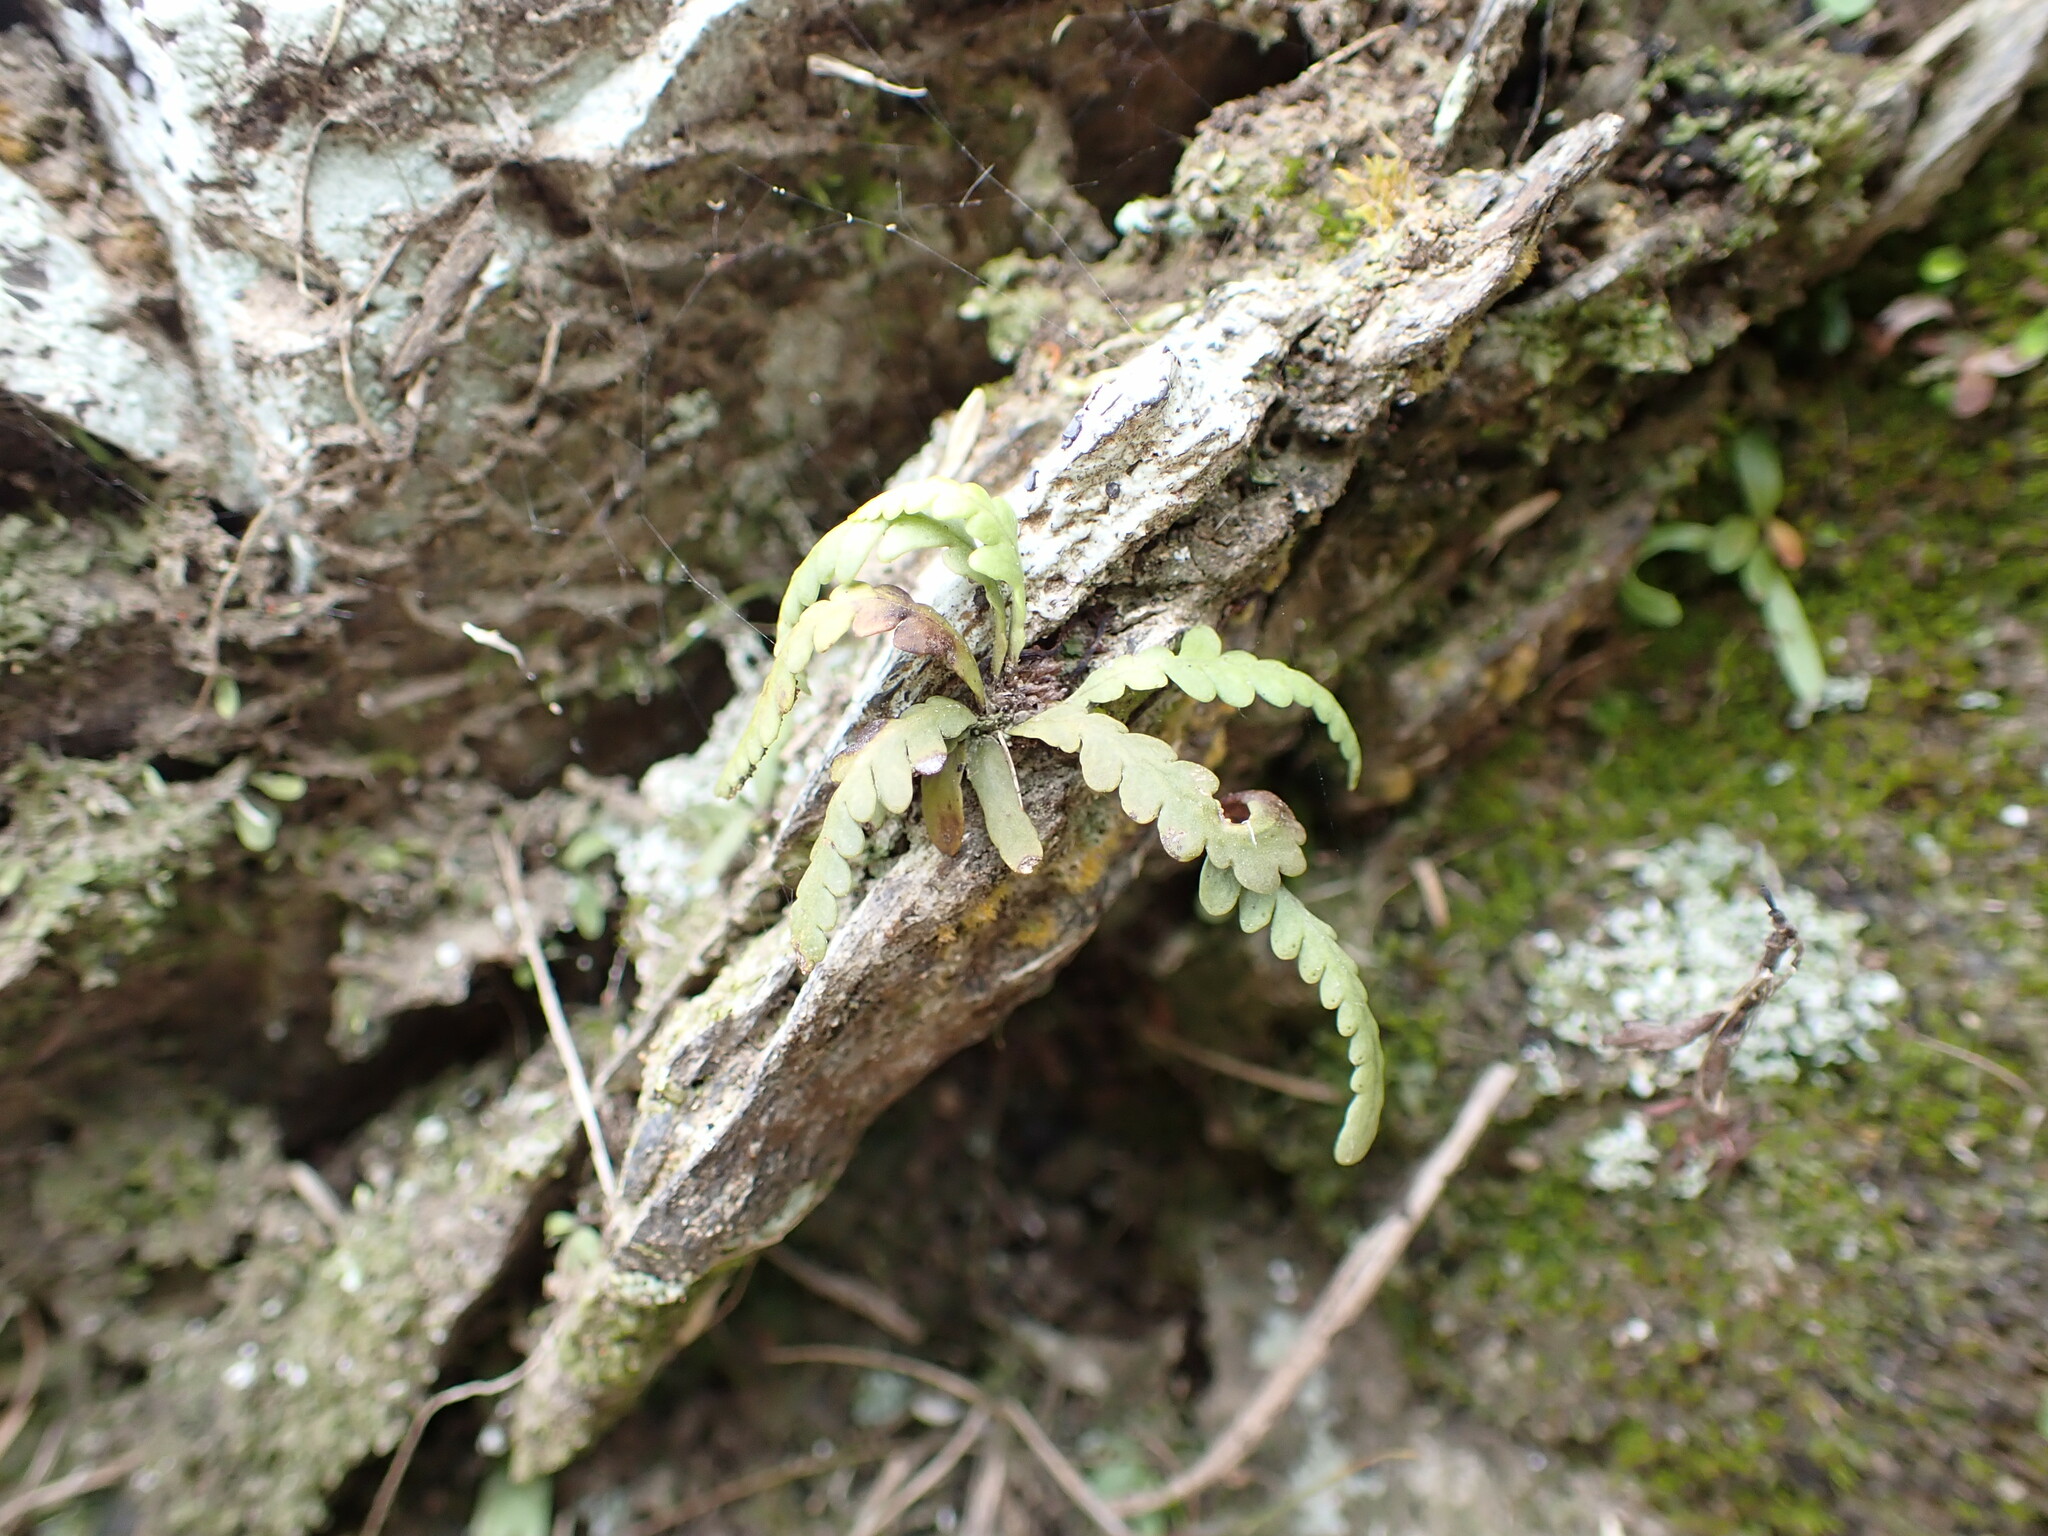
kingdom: Plantae
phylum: Tracheophyta
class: Polypodiopsida
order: Polypodiales
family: Polypodiaceae
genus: Notogrammitis
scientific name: Notogrammitis heterophylla
